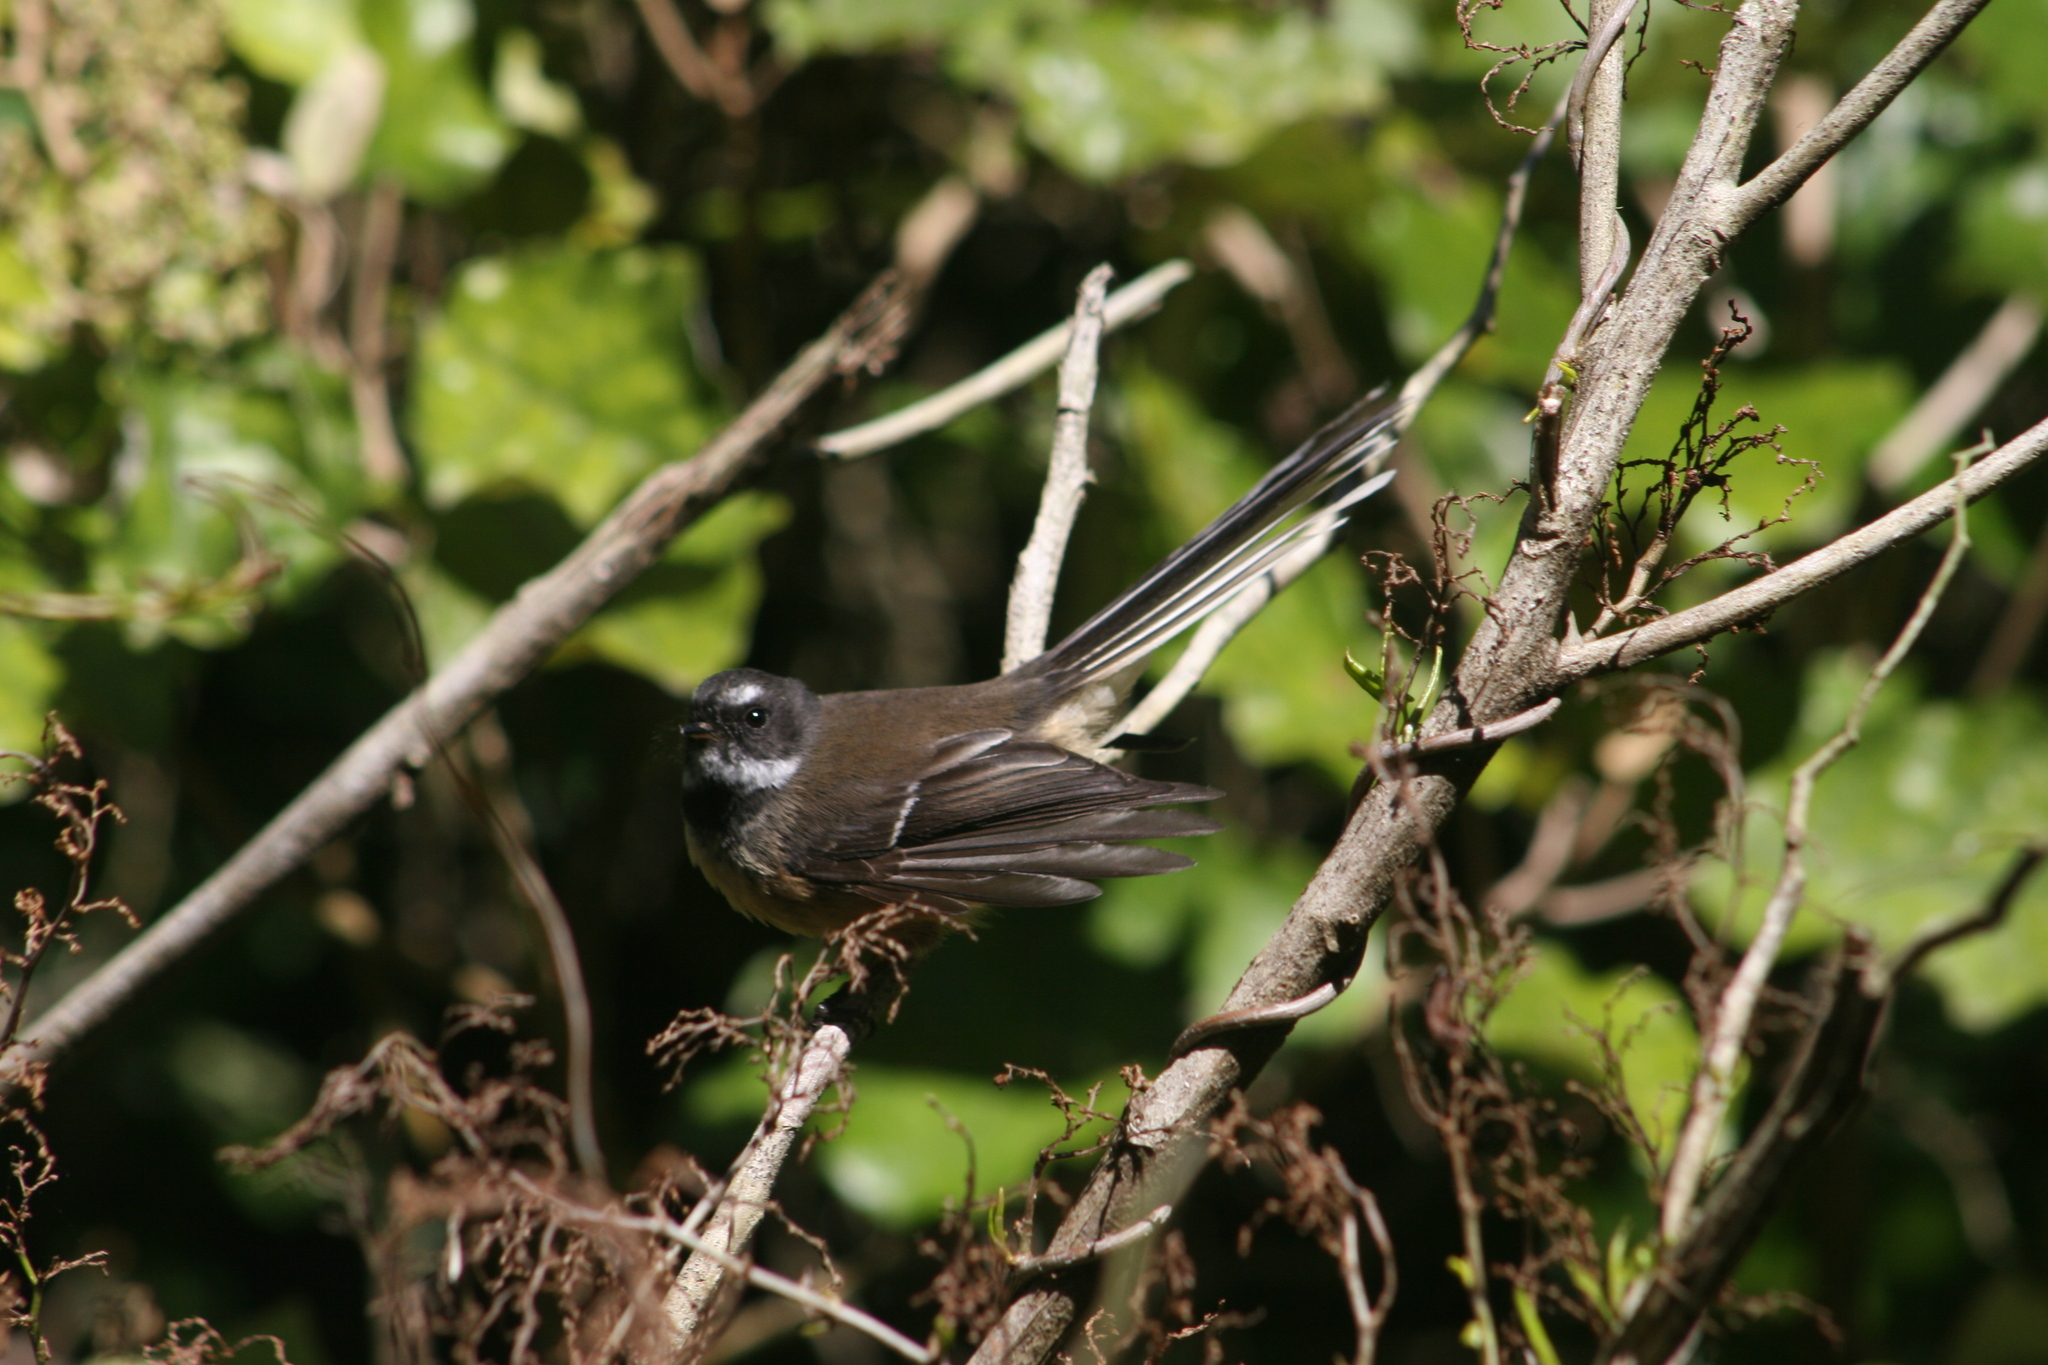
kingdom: Animalia
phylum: Chordata
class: Aves
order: Passeriformes
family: Rhipiduridae
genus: Rhipidura
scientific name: Rhipidura fuliginosa
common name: New zealand fantail
